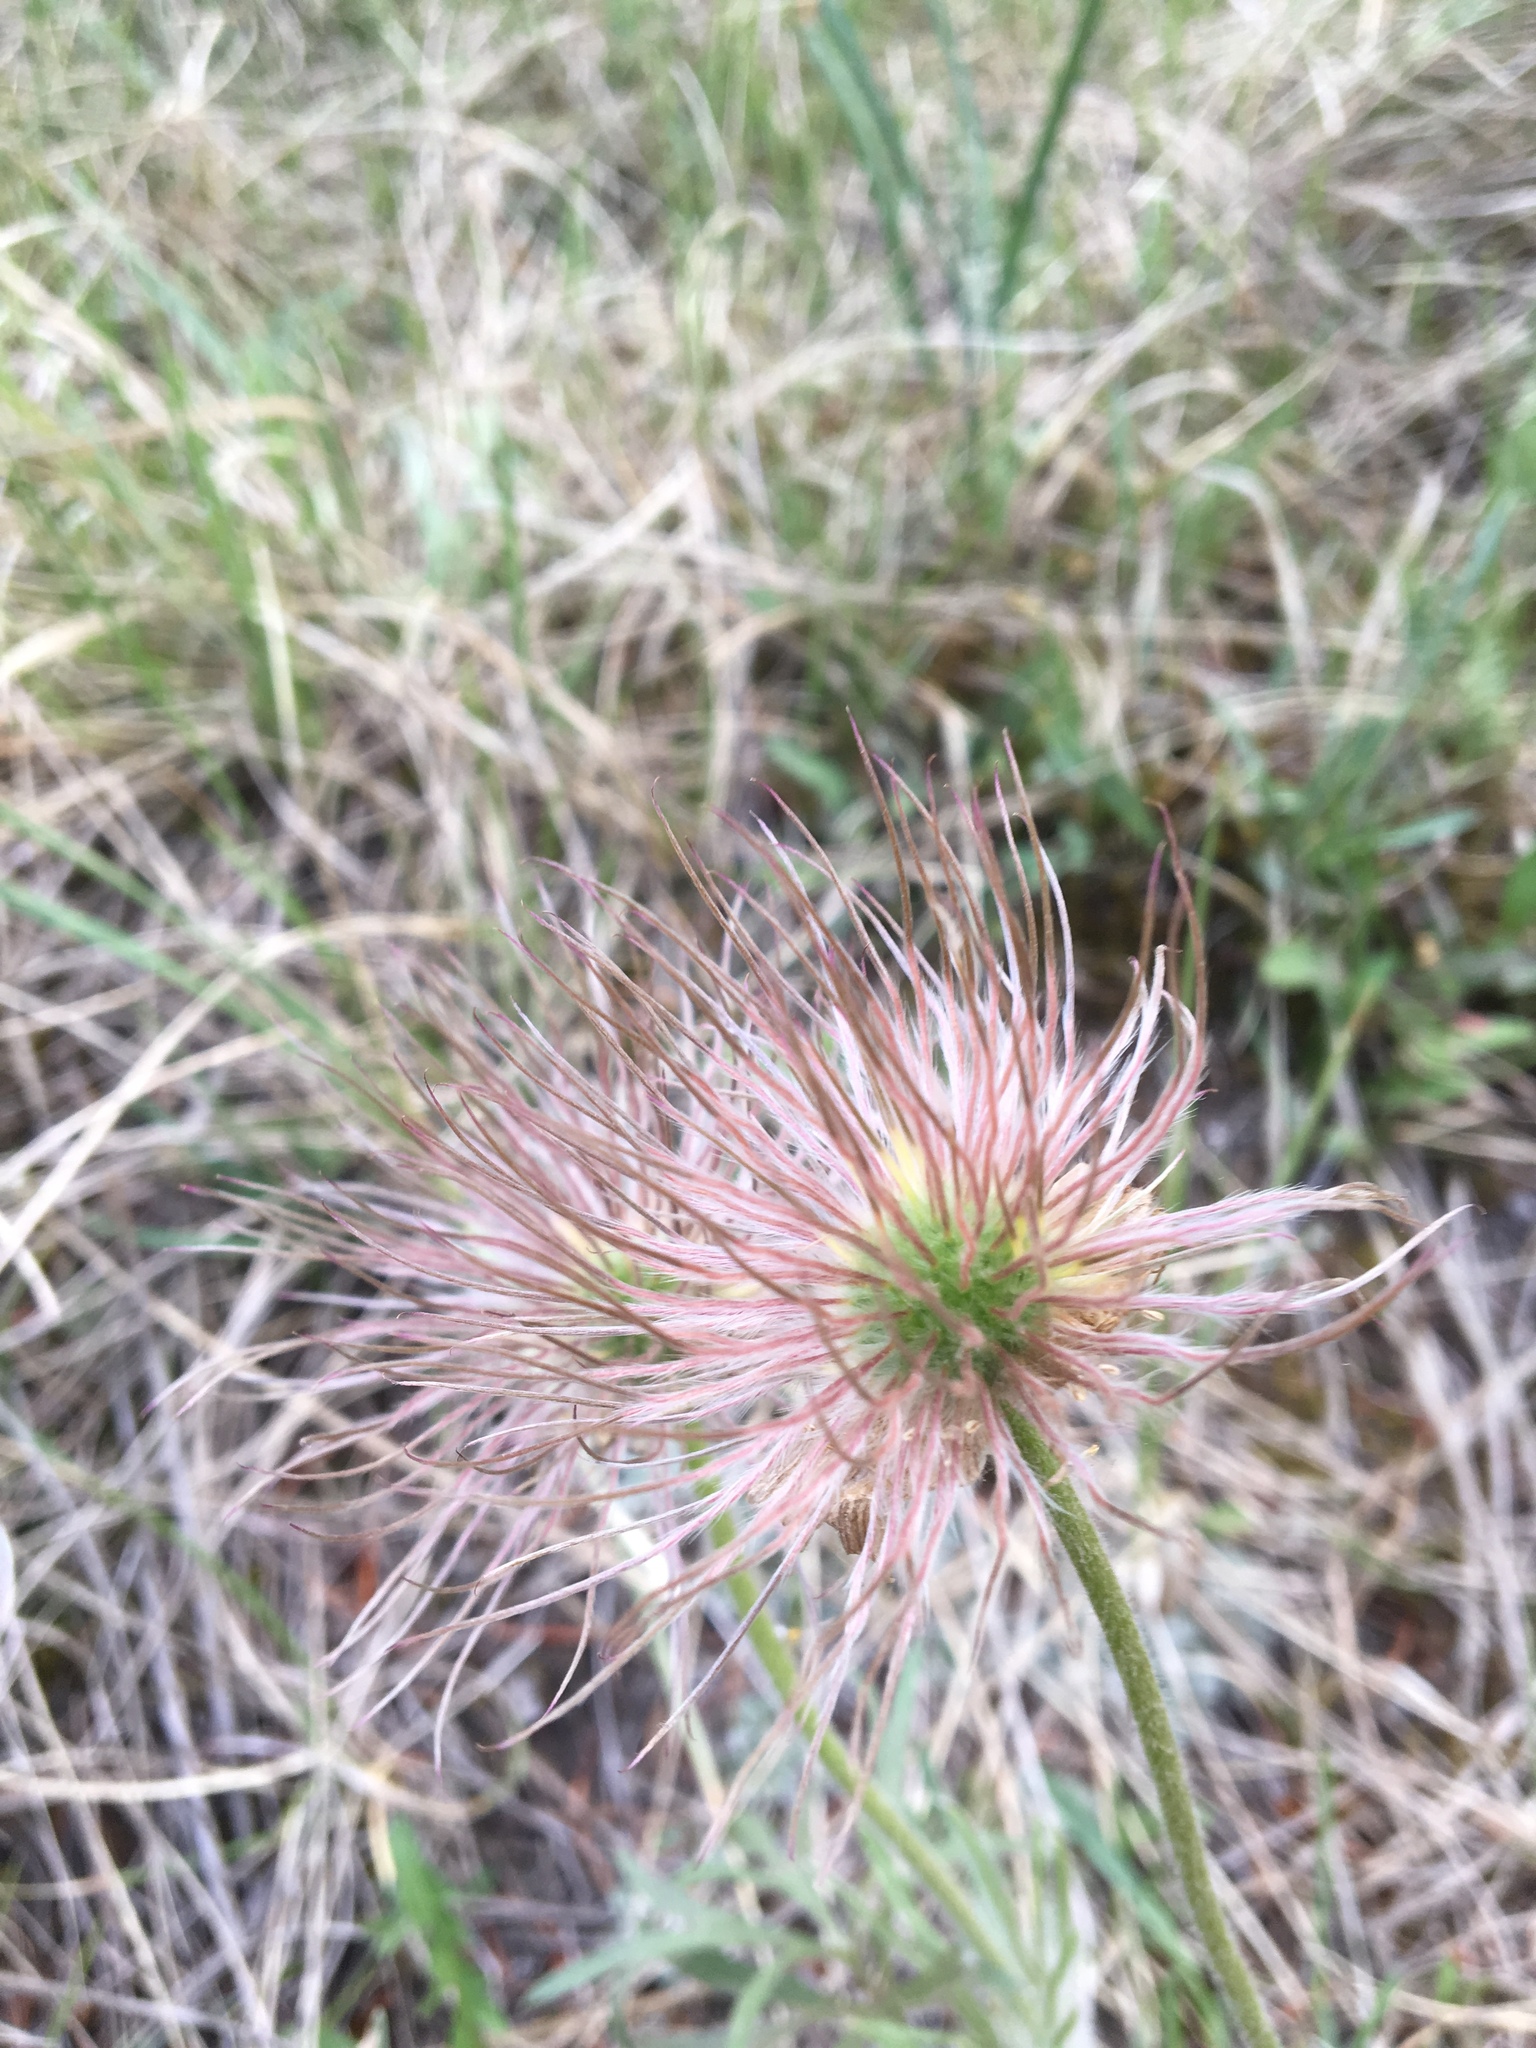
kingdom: Plantae
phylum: Tracheophyta
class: Magnoliopsida
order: Ranunculales
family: Ranunculaceae
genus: Pulsatilla
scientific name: Pulsatilla nuttalliana
